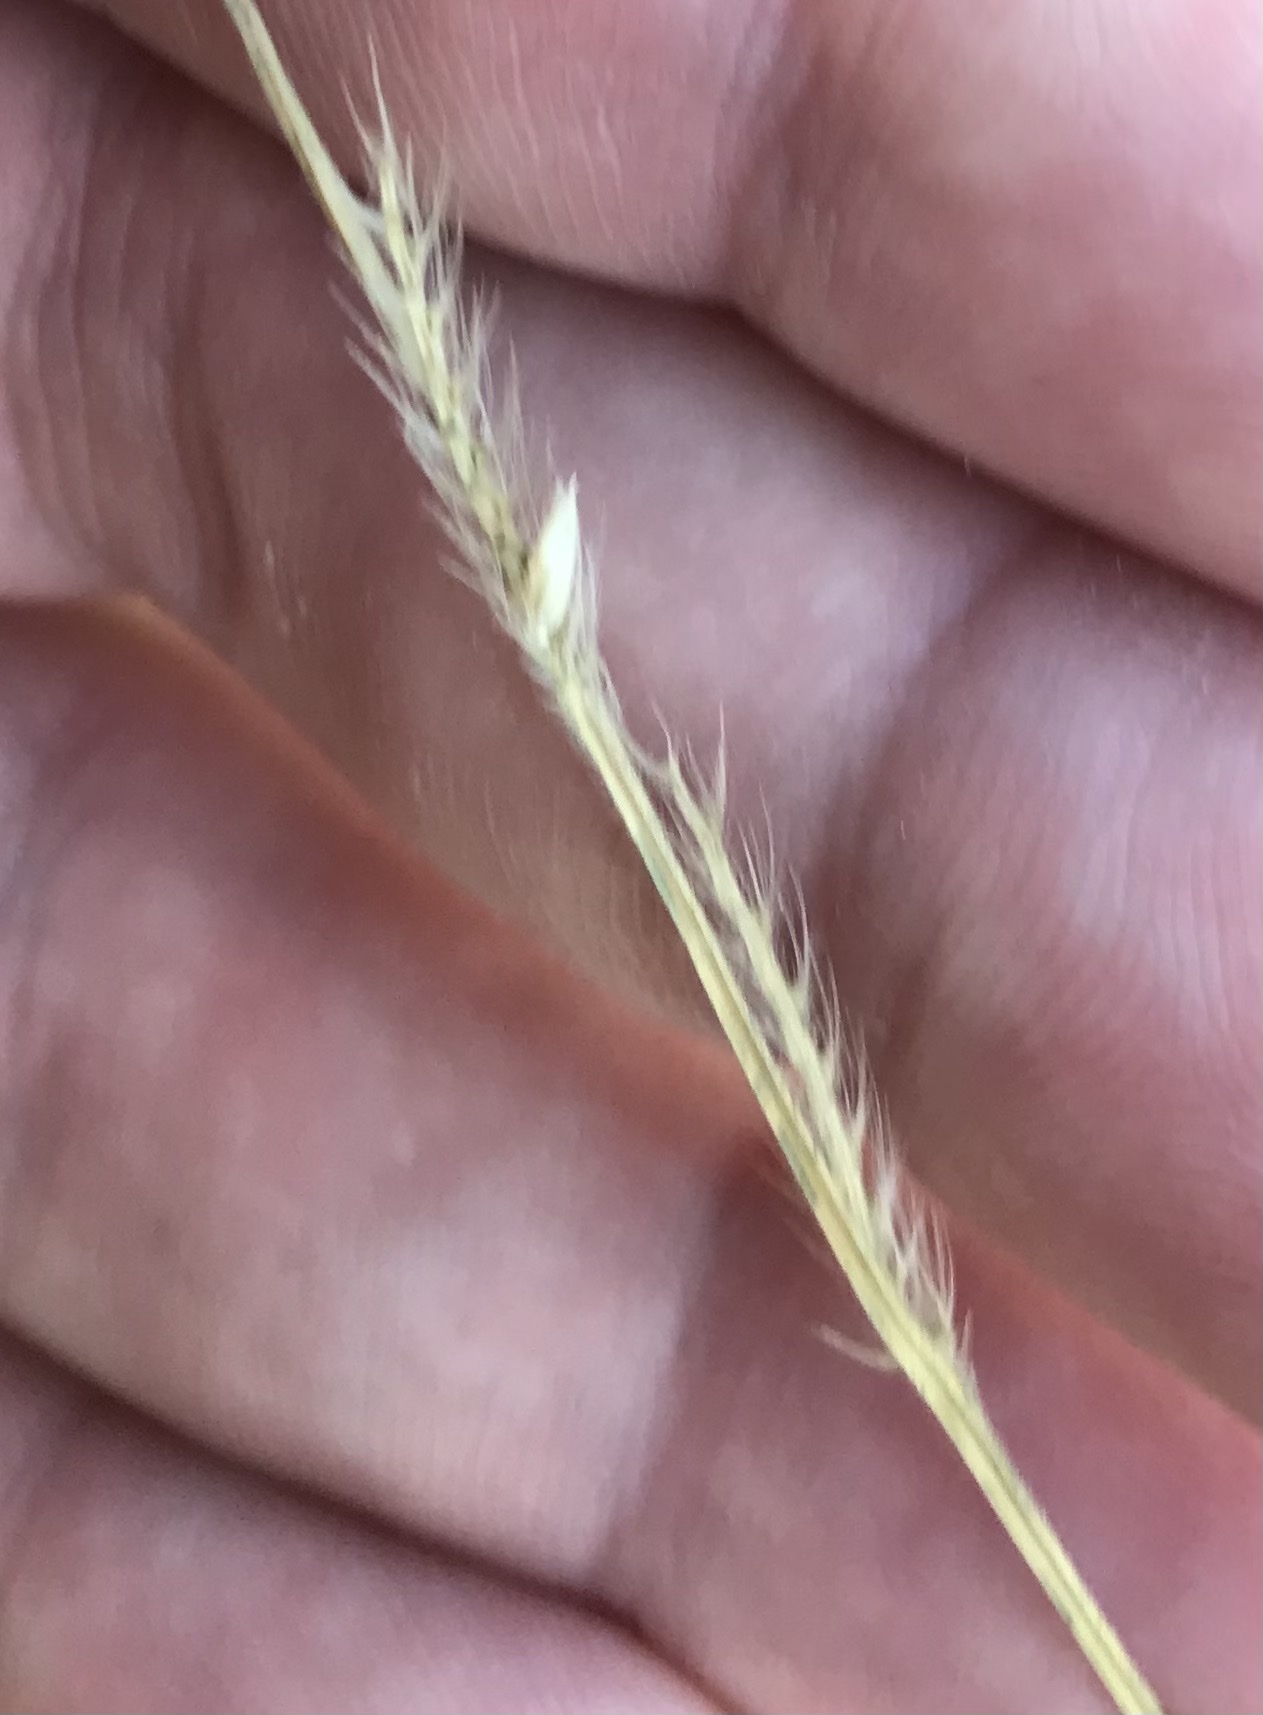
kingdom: Plantae
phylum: Tracheophyta
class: Liliopsida
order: Poales
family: Poaceae
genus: Eriochloa
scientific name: Eriochloa sericea
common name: Texas cup grass
